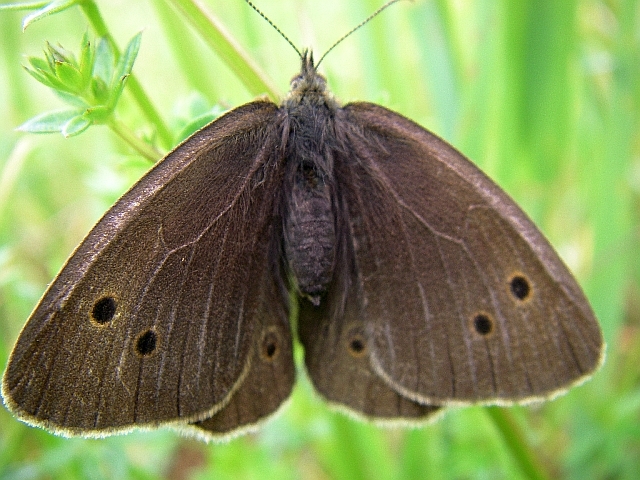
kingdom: Animalia
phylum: Arthropoda
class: Insecta
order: Lepidoptera
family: Nymphalidae
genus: Aphantopus
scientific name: Aphantopus hyperantus
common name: Ringlet
